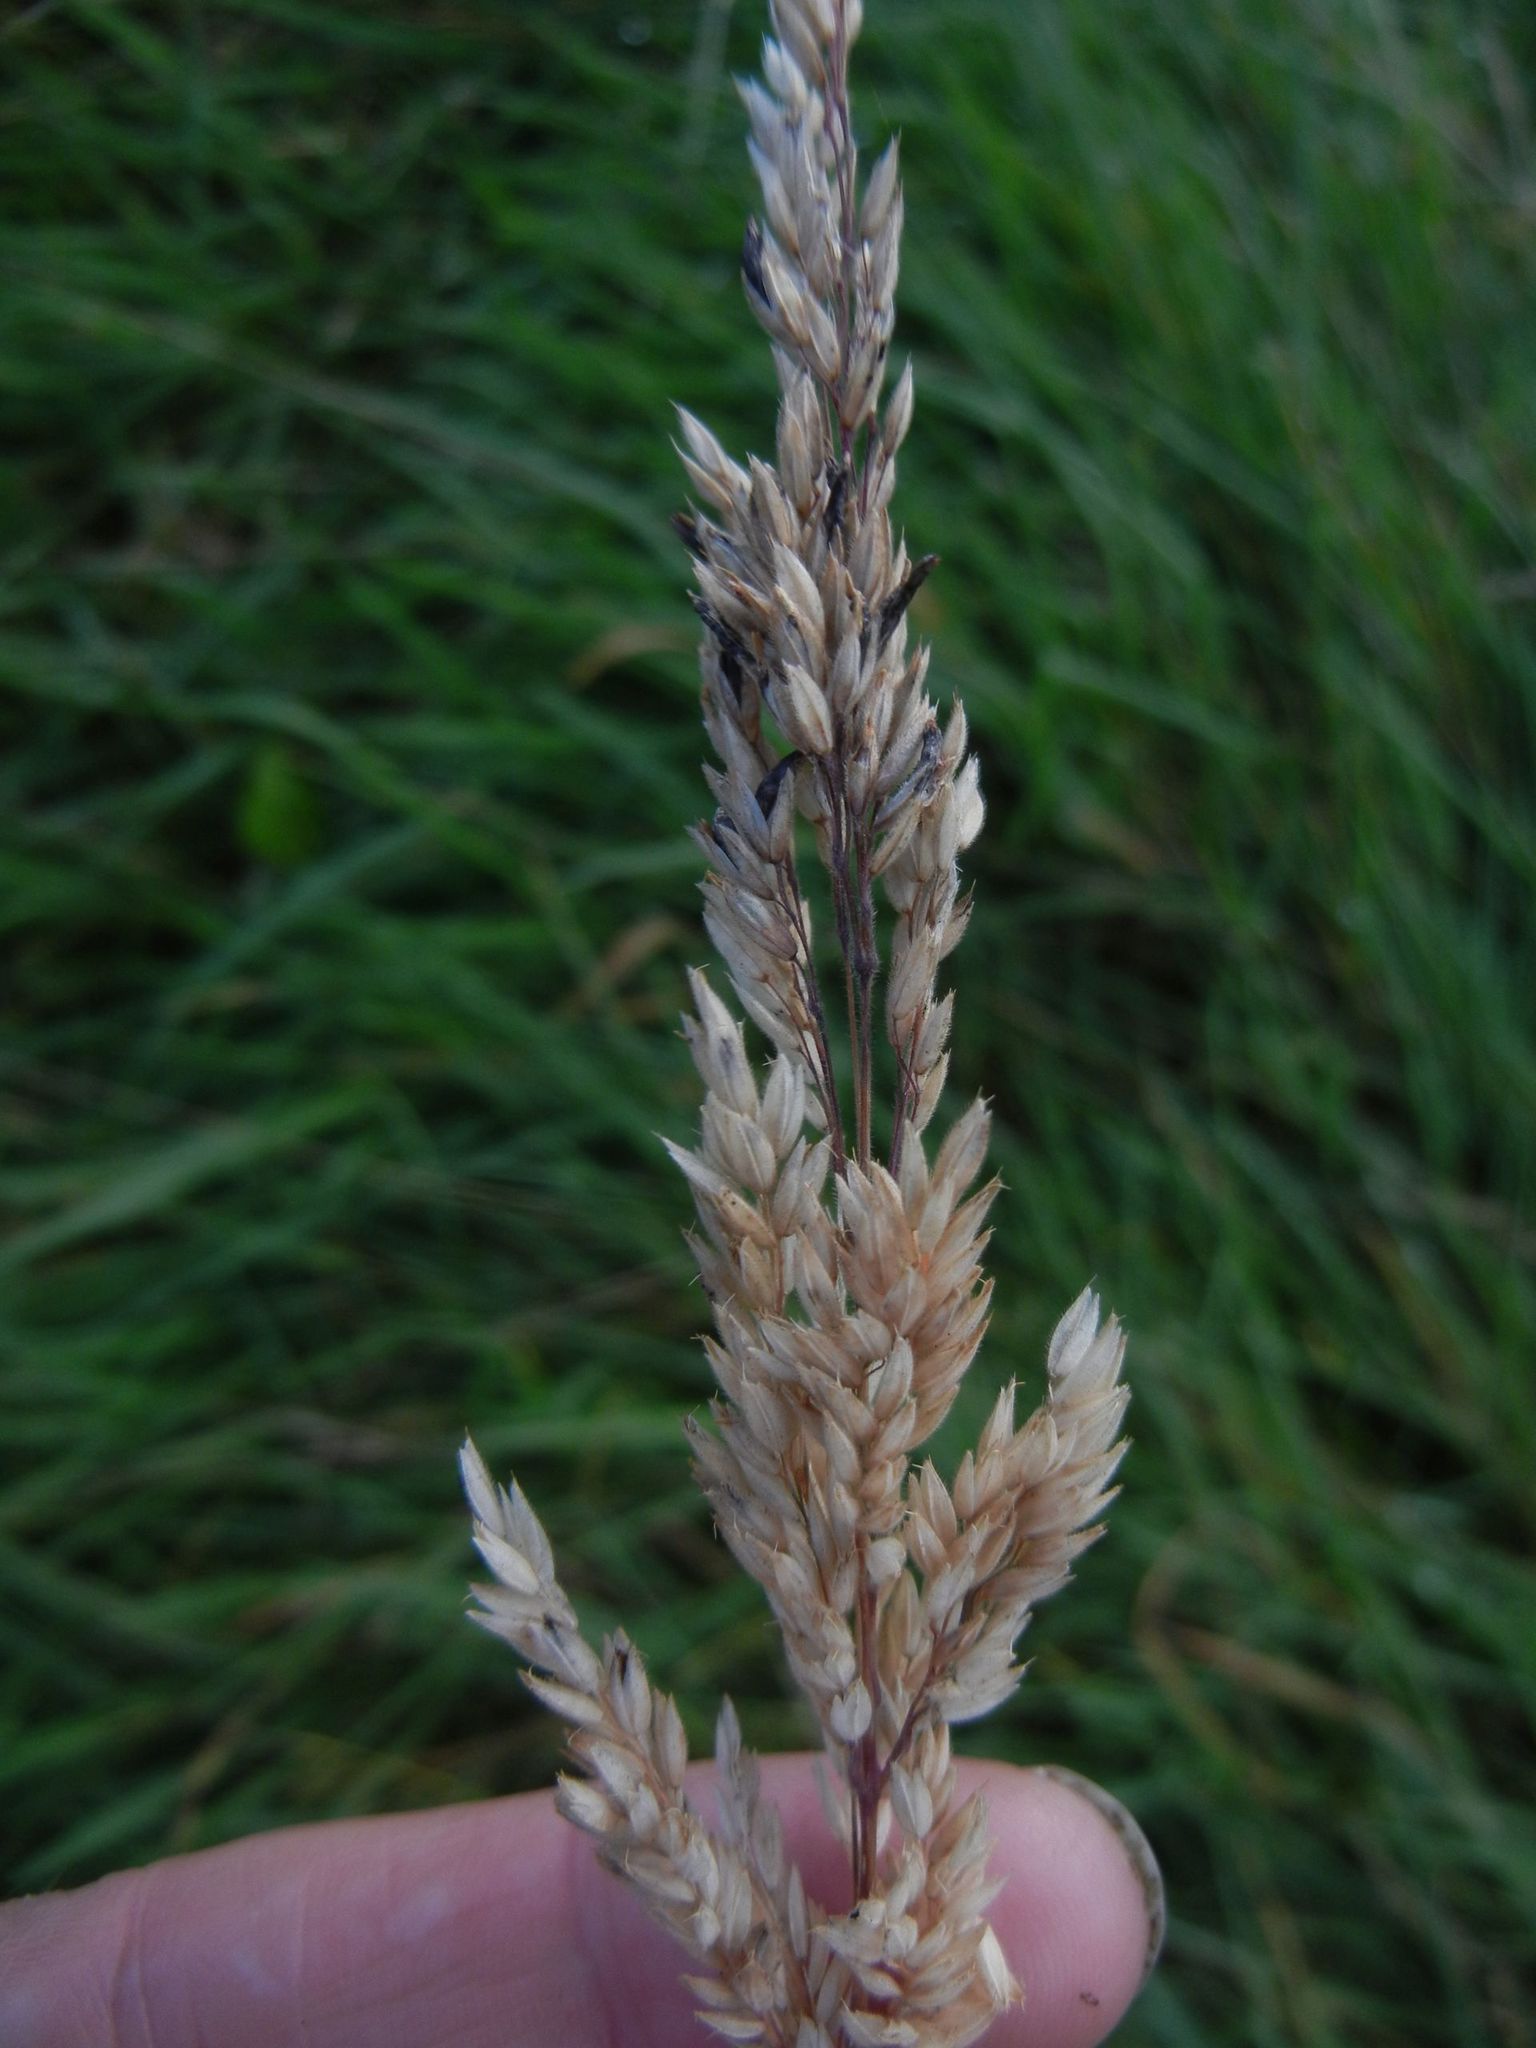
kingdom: Plantae
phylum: Tracheophyta
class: Liliopsida
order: Poales
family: Poaceae
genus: Holcus
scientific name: Holcus lanatus
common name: Yorkshire-fog
